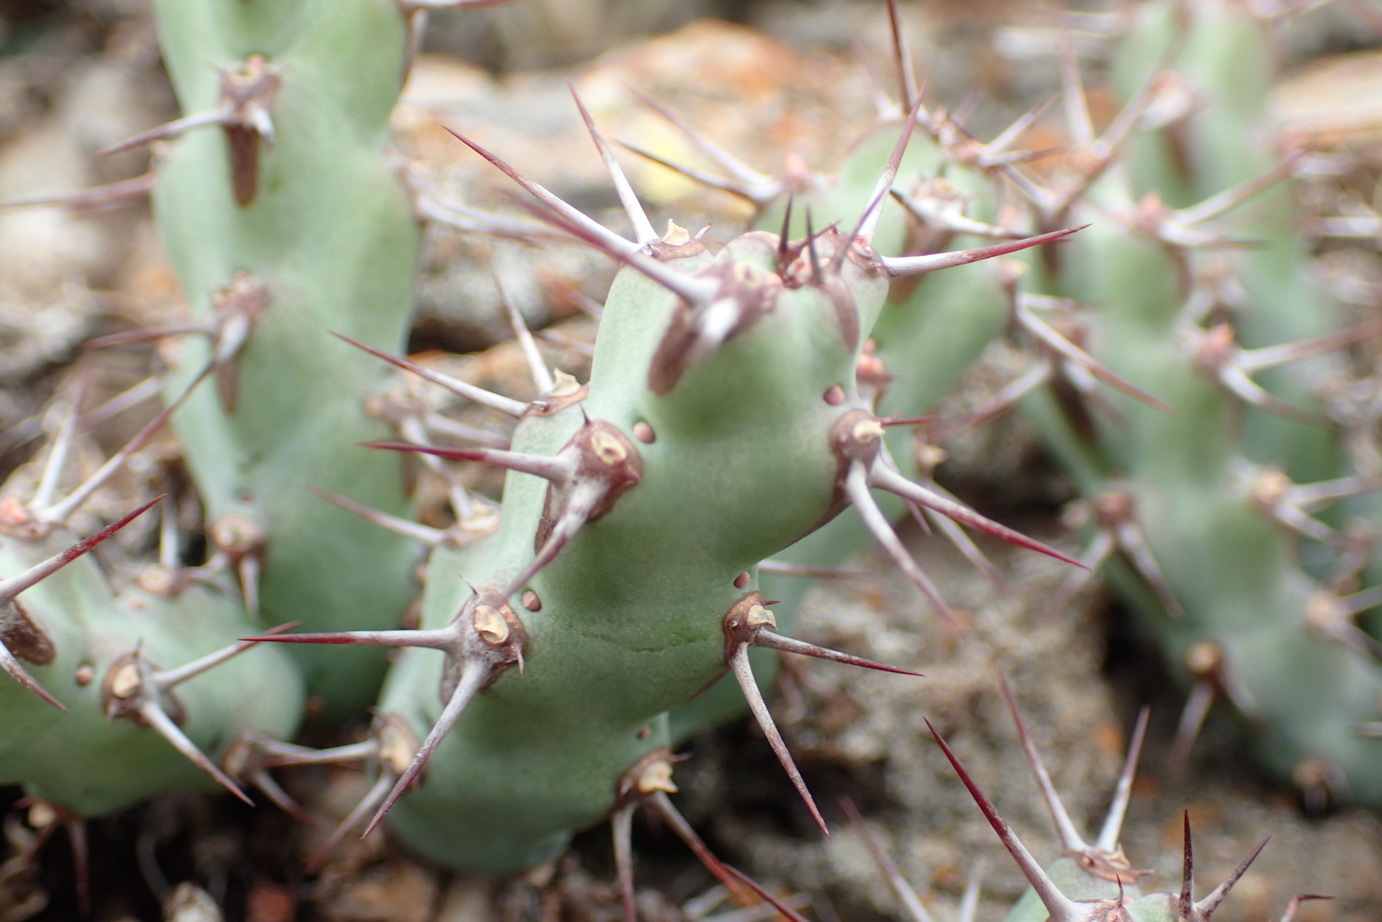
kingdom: Plantae
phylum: Tracheophyta
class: Magnoliopsida
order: Malpighiales
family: Euphorbiaceae
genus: Euphorbia
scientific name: Euphorbia schinzii
